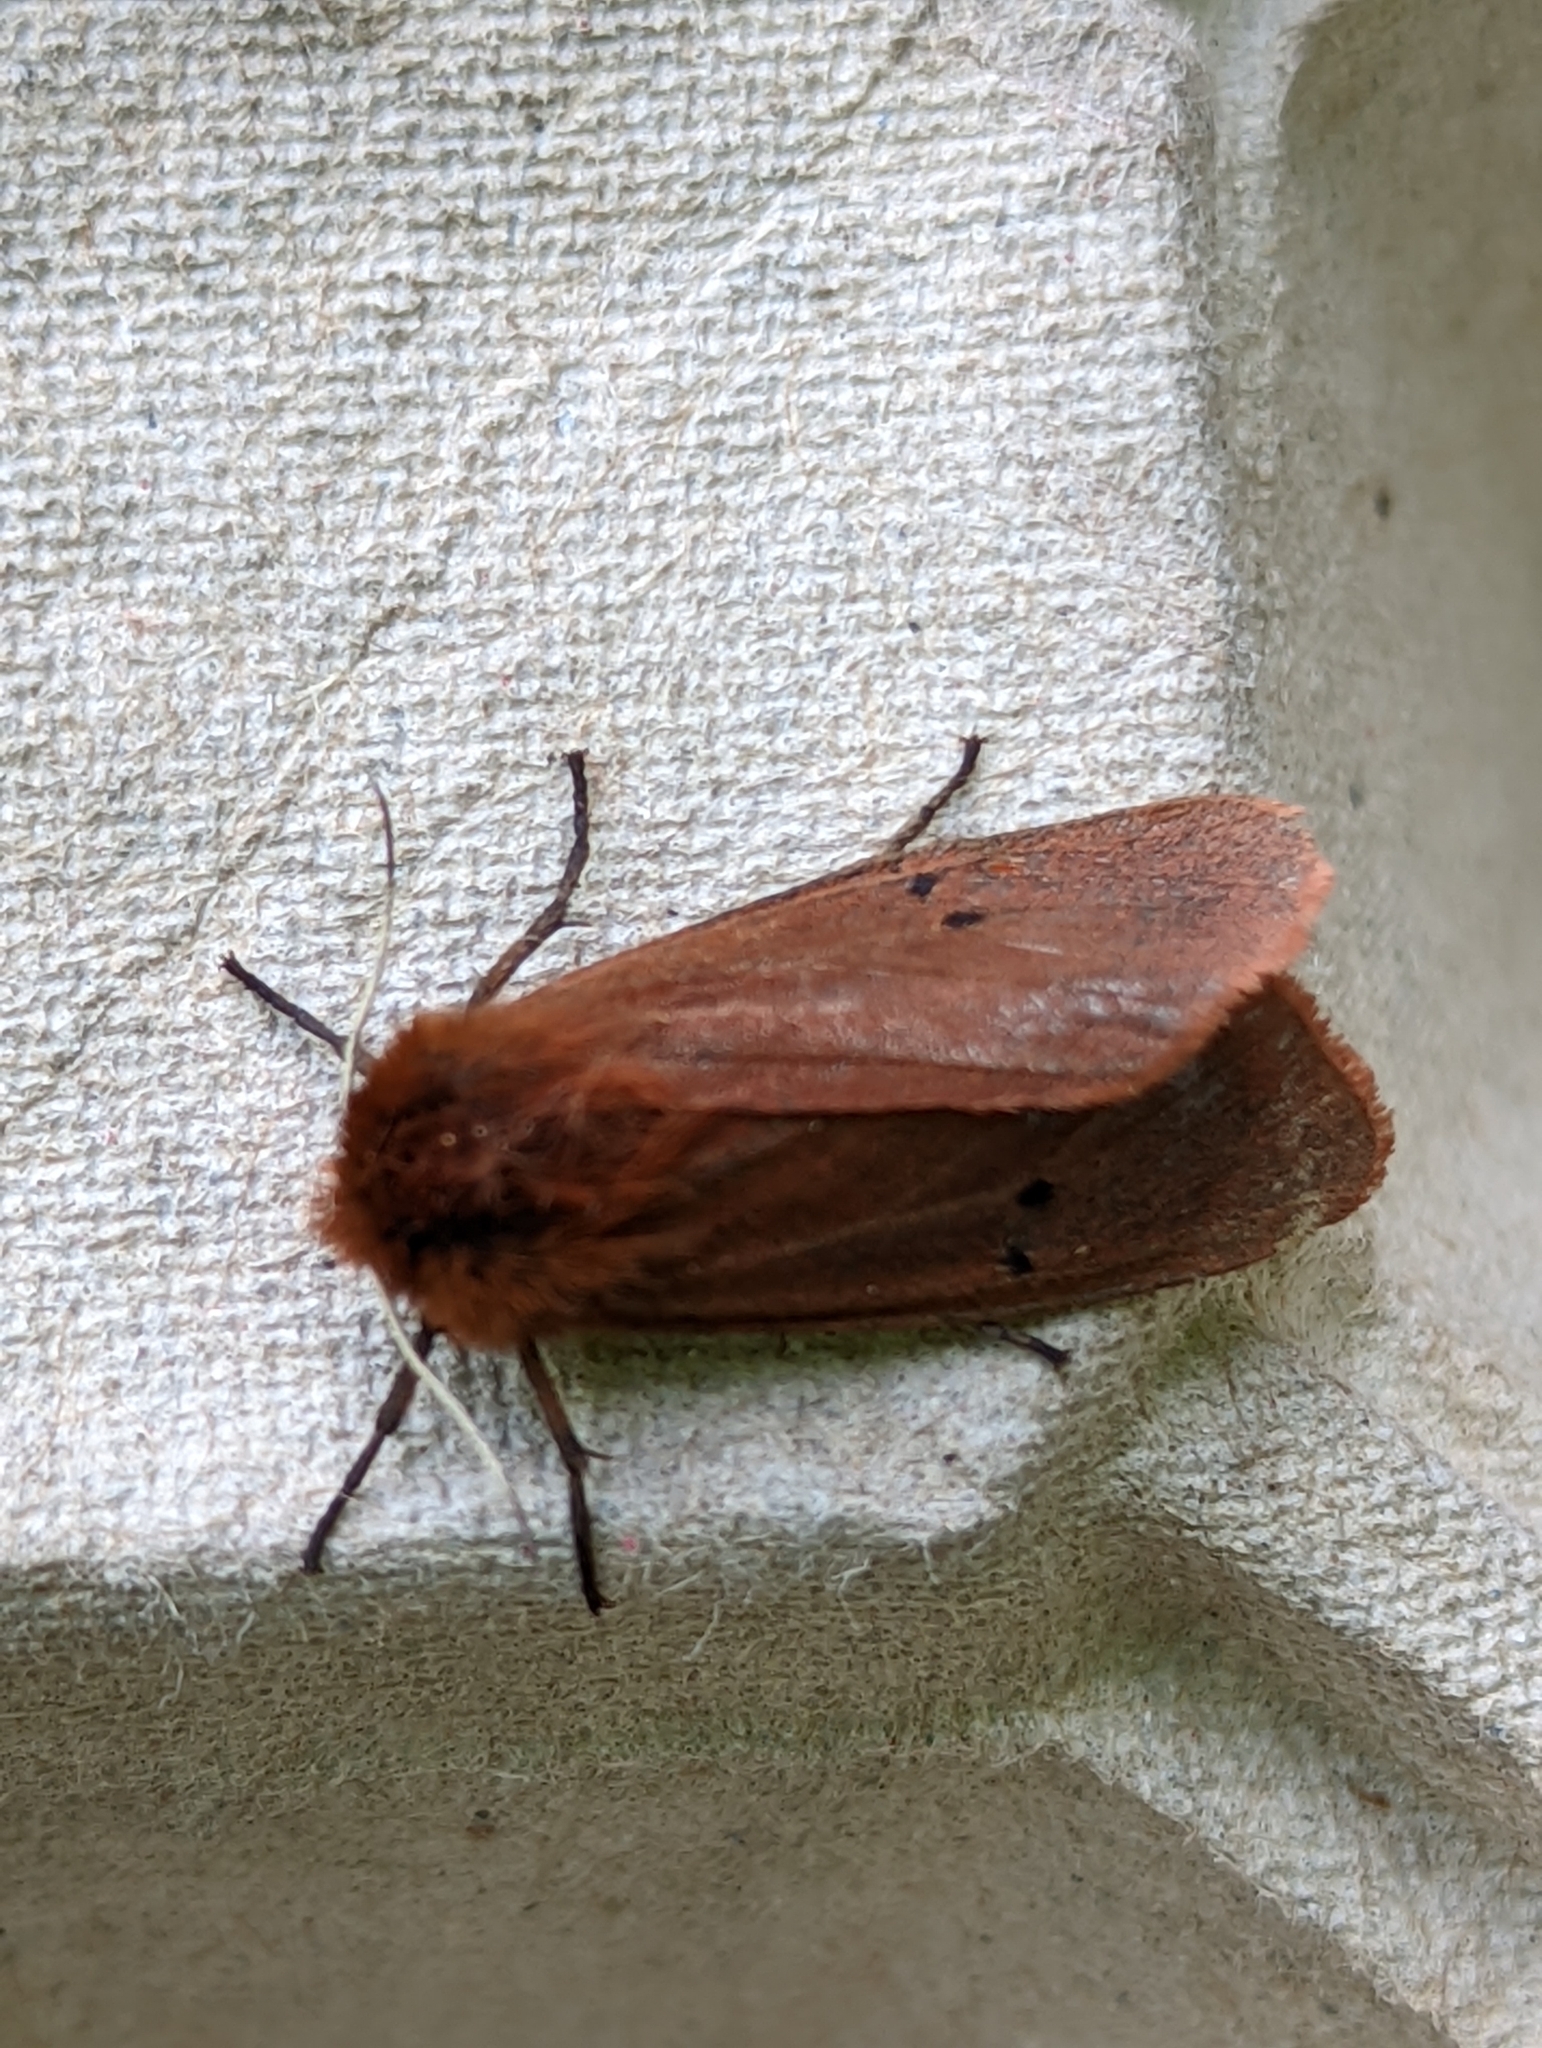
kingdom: Animalia
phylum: Arthropoda
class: Insecta
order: Lepidoptera
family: Erebidae
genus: Phragmatobia
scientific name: Phragmatobia fuliginosa
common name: Ruby tiger
